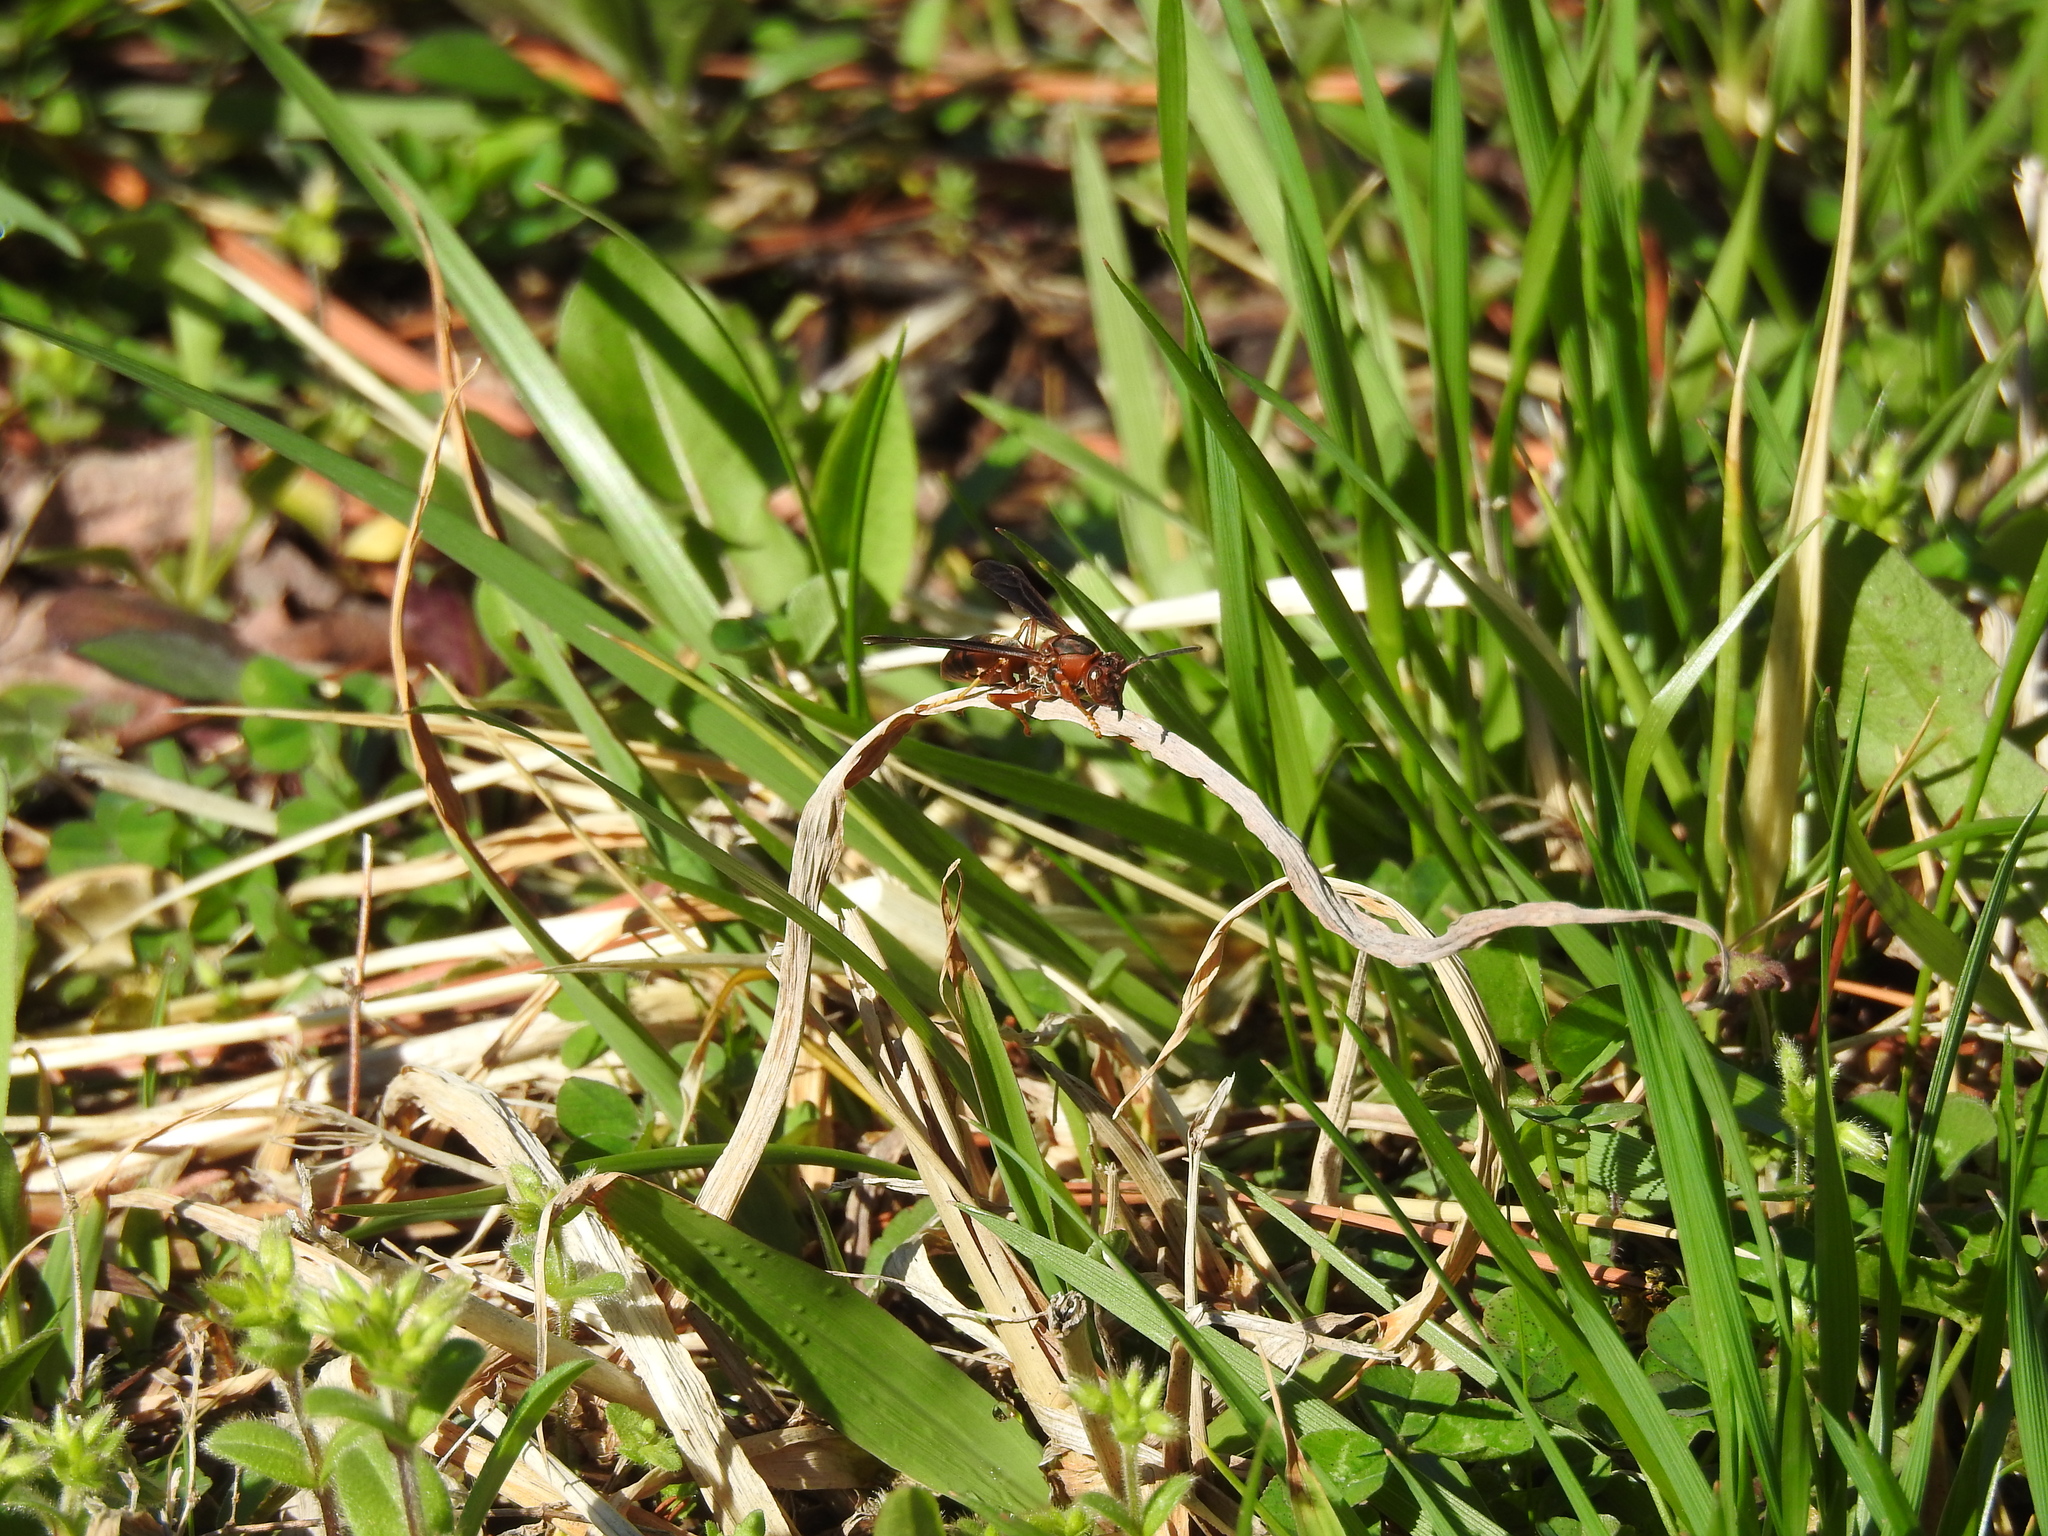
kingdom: Animalia
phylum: Arthropoda
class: Insecta
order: Hymenoptera
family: Vespidae
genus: Fuscopolistes
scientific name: Fuscopolistes
